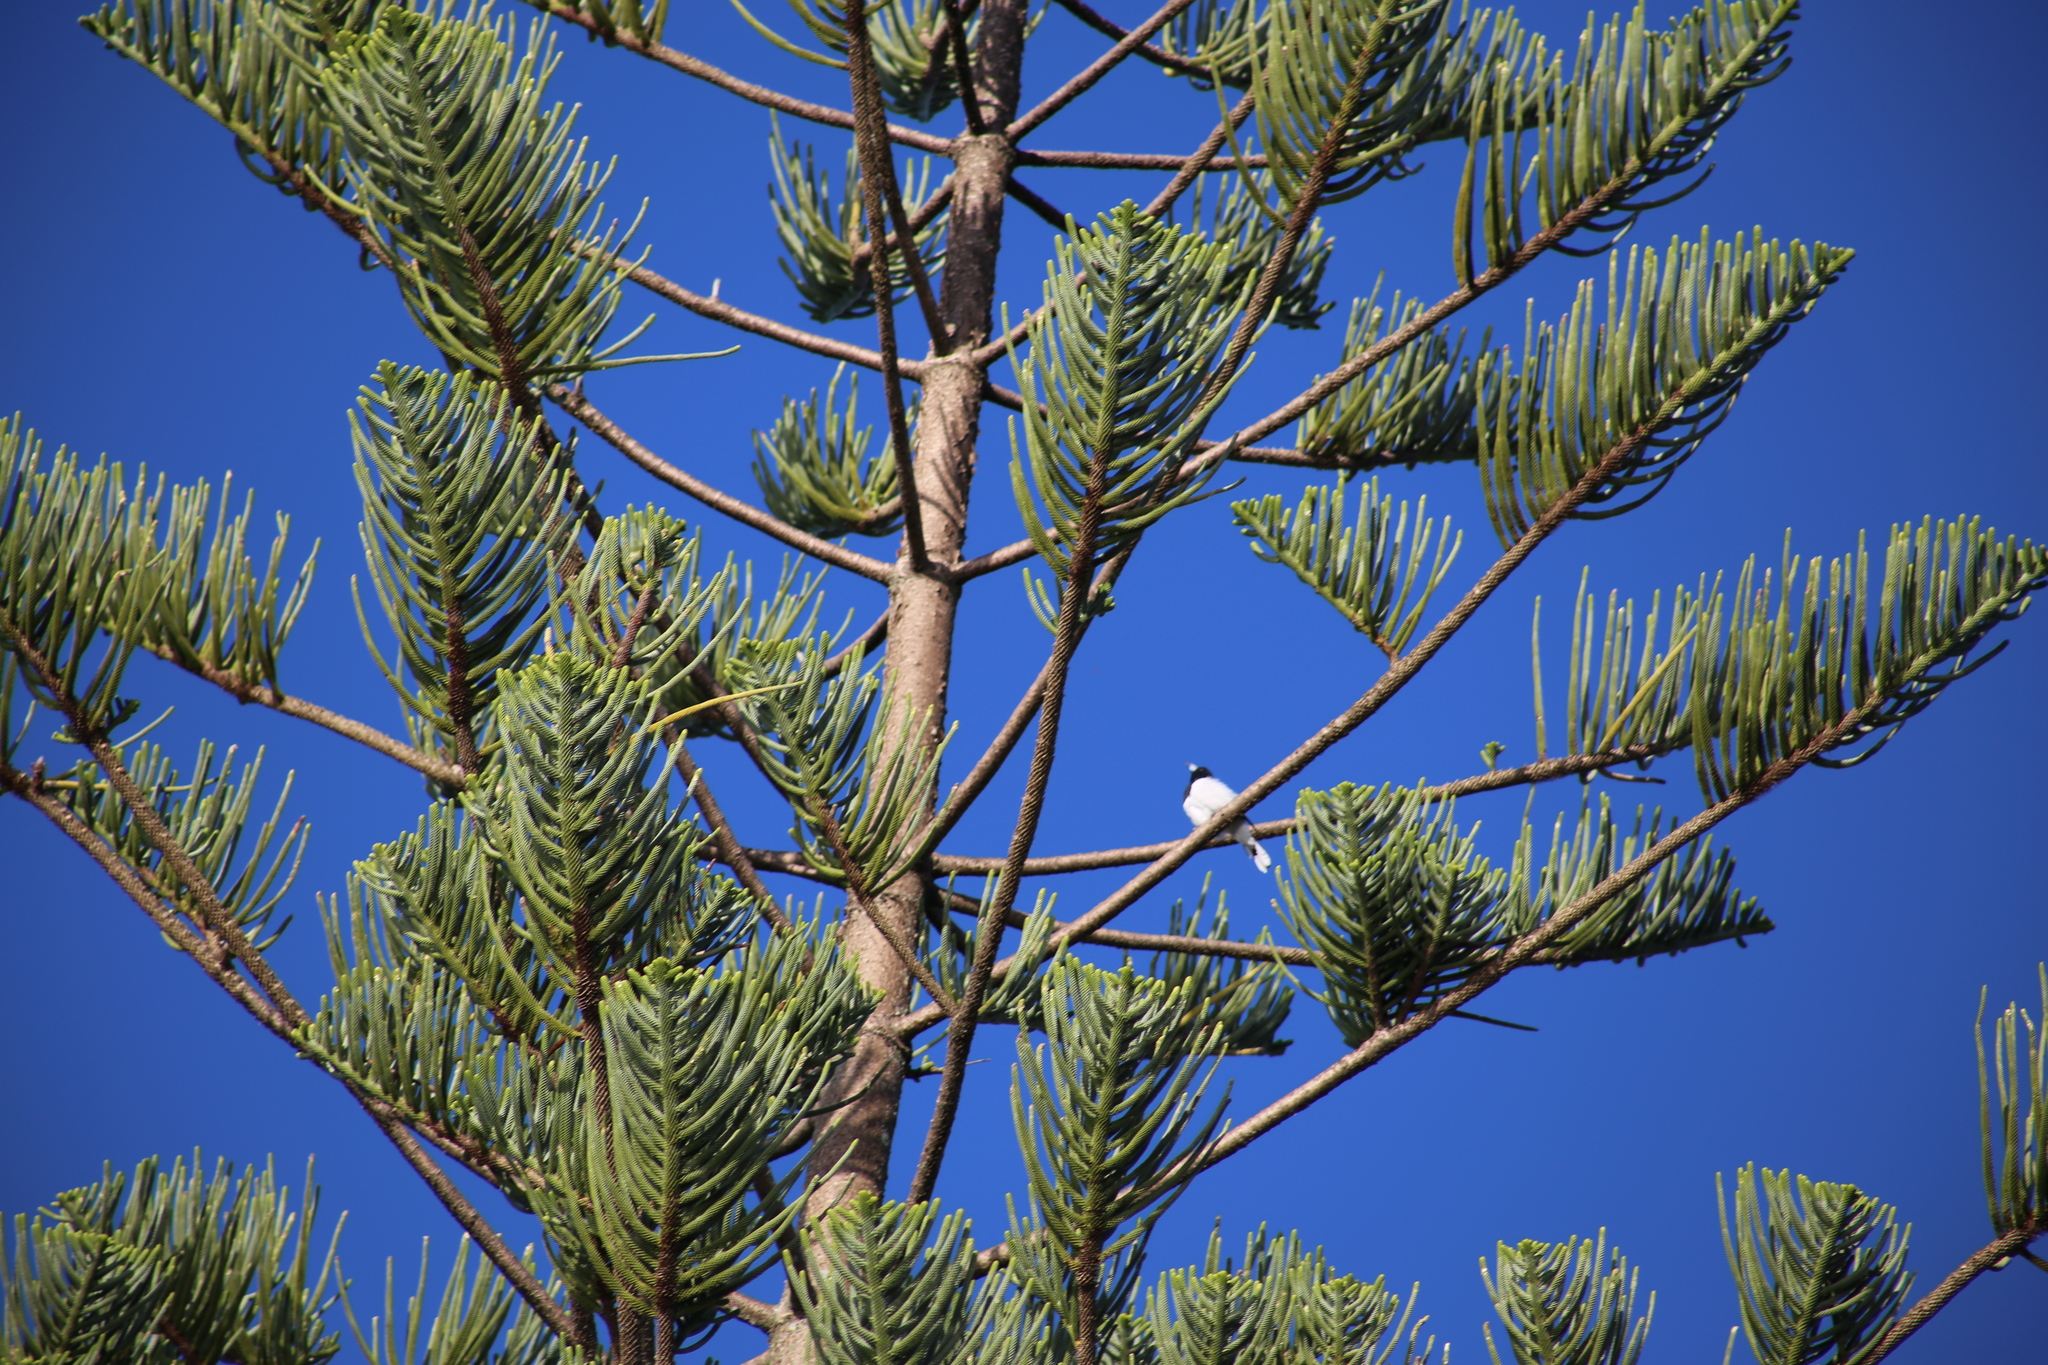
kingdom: Animalia
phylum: Chordata
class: Aves
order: Passeriformes
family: Cracticidae
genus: Cracticus
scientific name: Cracticus nigrogularis
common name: Pied butcherbird
